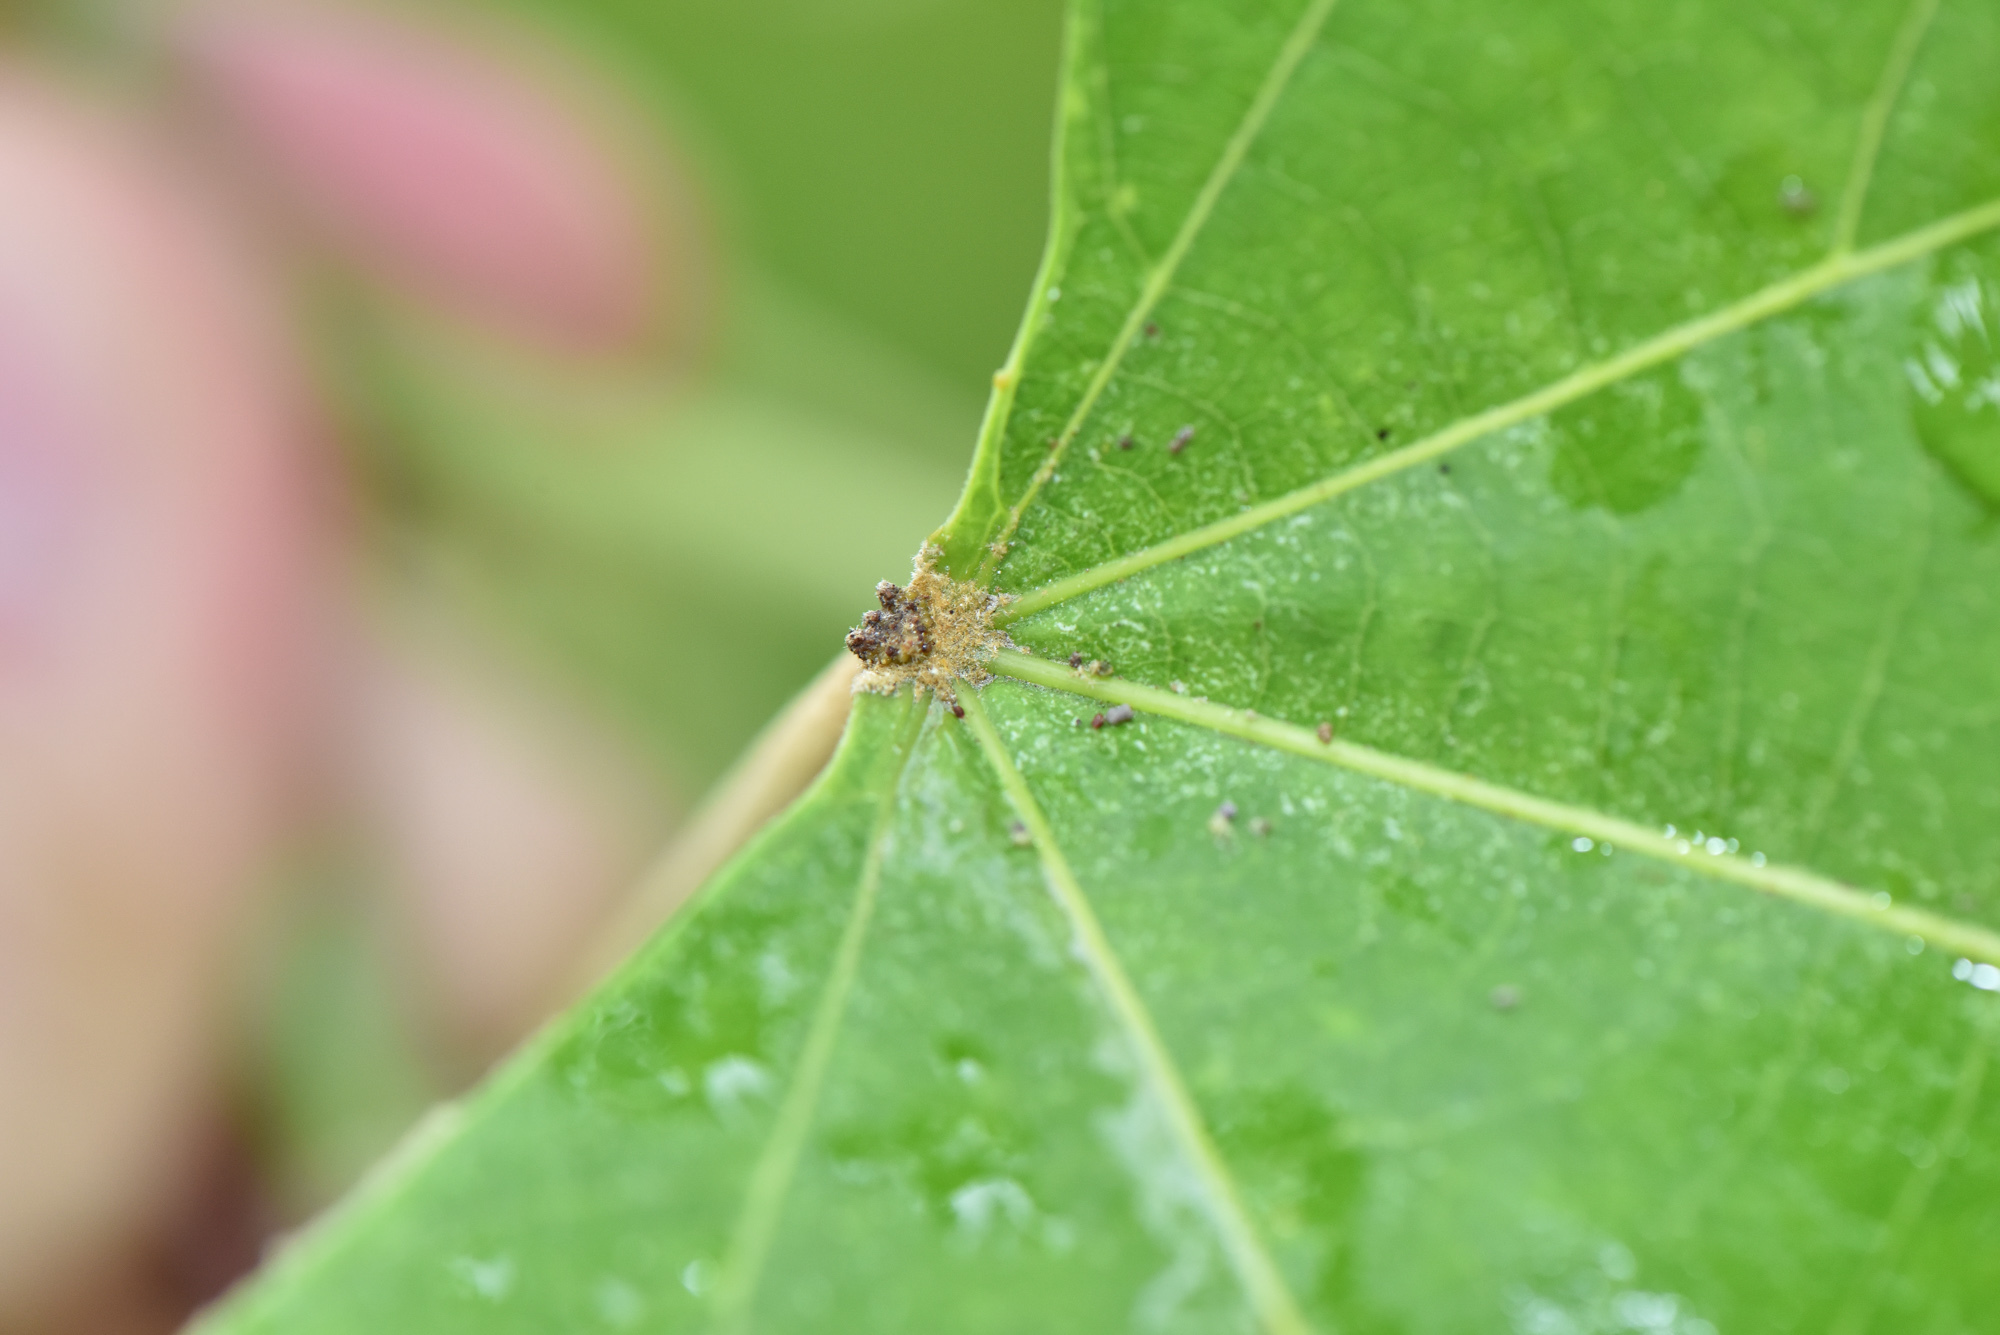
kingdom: Plantae
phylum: Tracheophyta
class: Magnoliopsida
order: Malpighiales
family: Euphorbiaceae
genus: Melanolepis
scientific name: Melanolepis multiglandulosa
